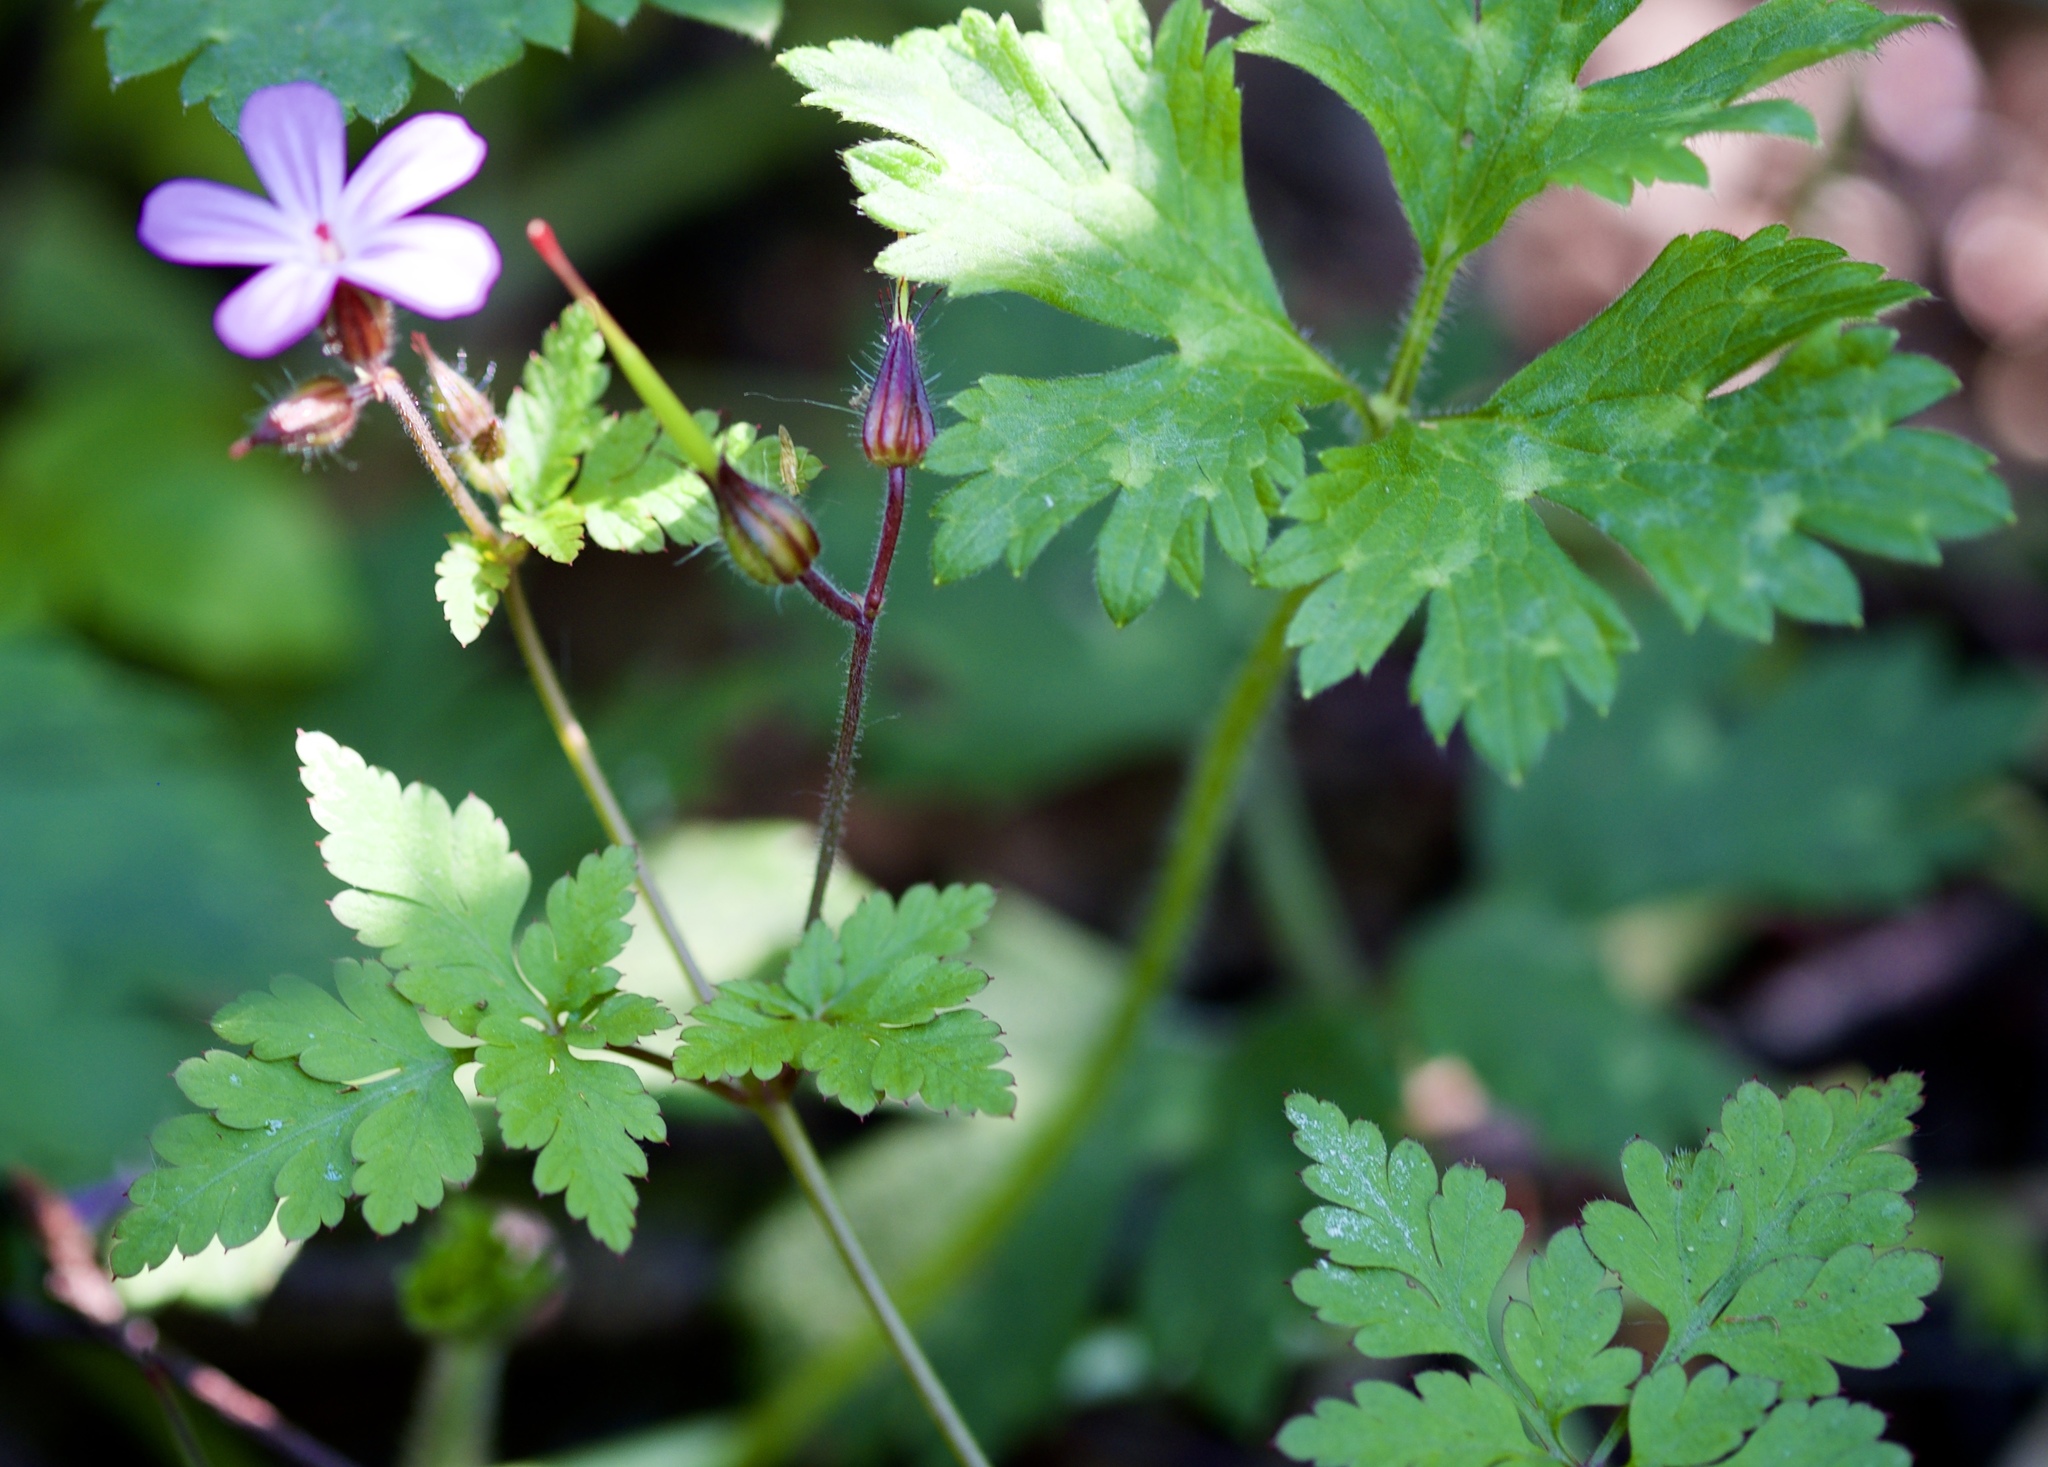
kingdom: Plantae
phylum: Tracheophyta
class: Magnoliopsida
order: Geraniales
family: Geraniaceae
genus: Geranium
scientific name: Geranium robertianum
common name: Herb-robert
